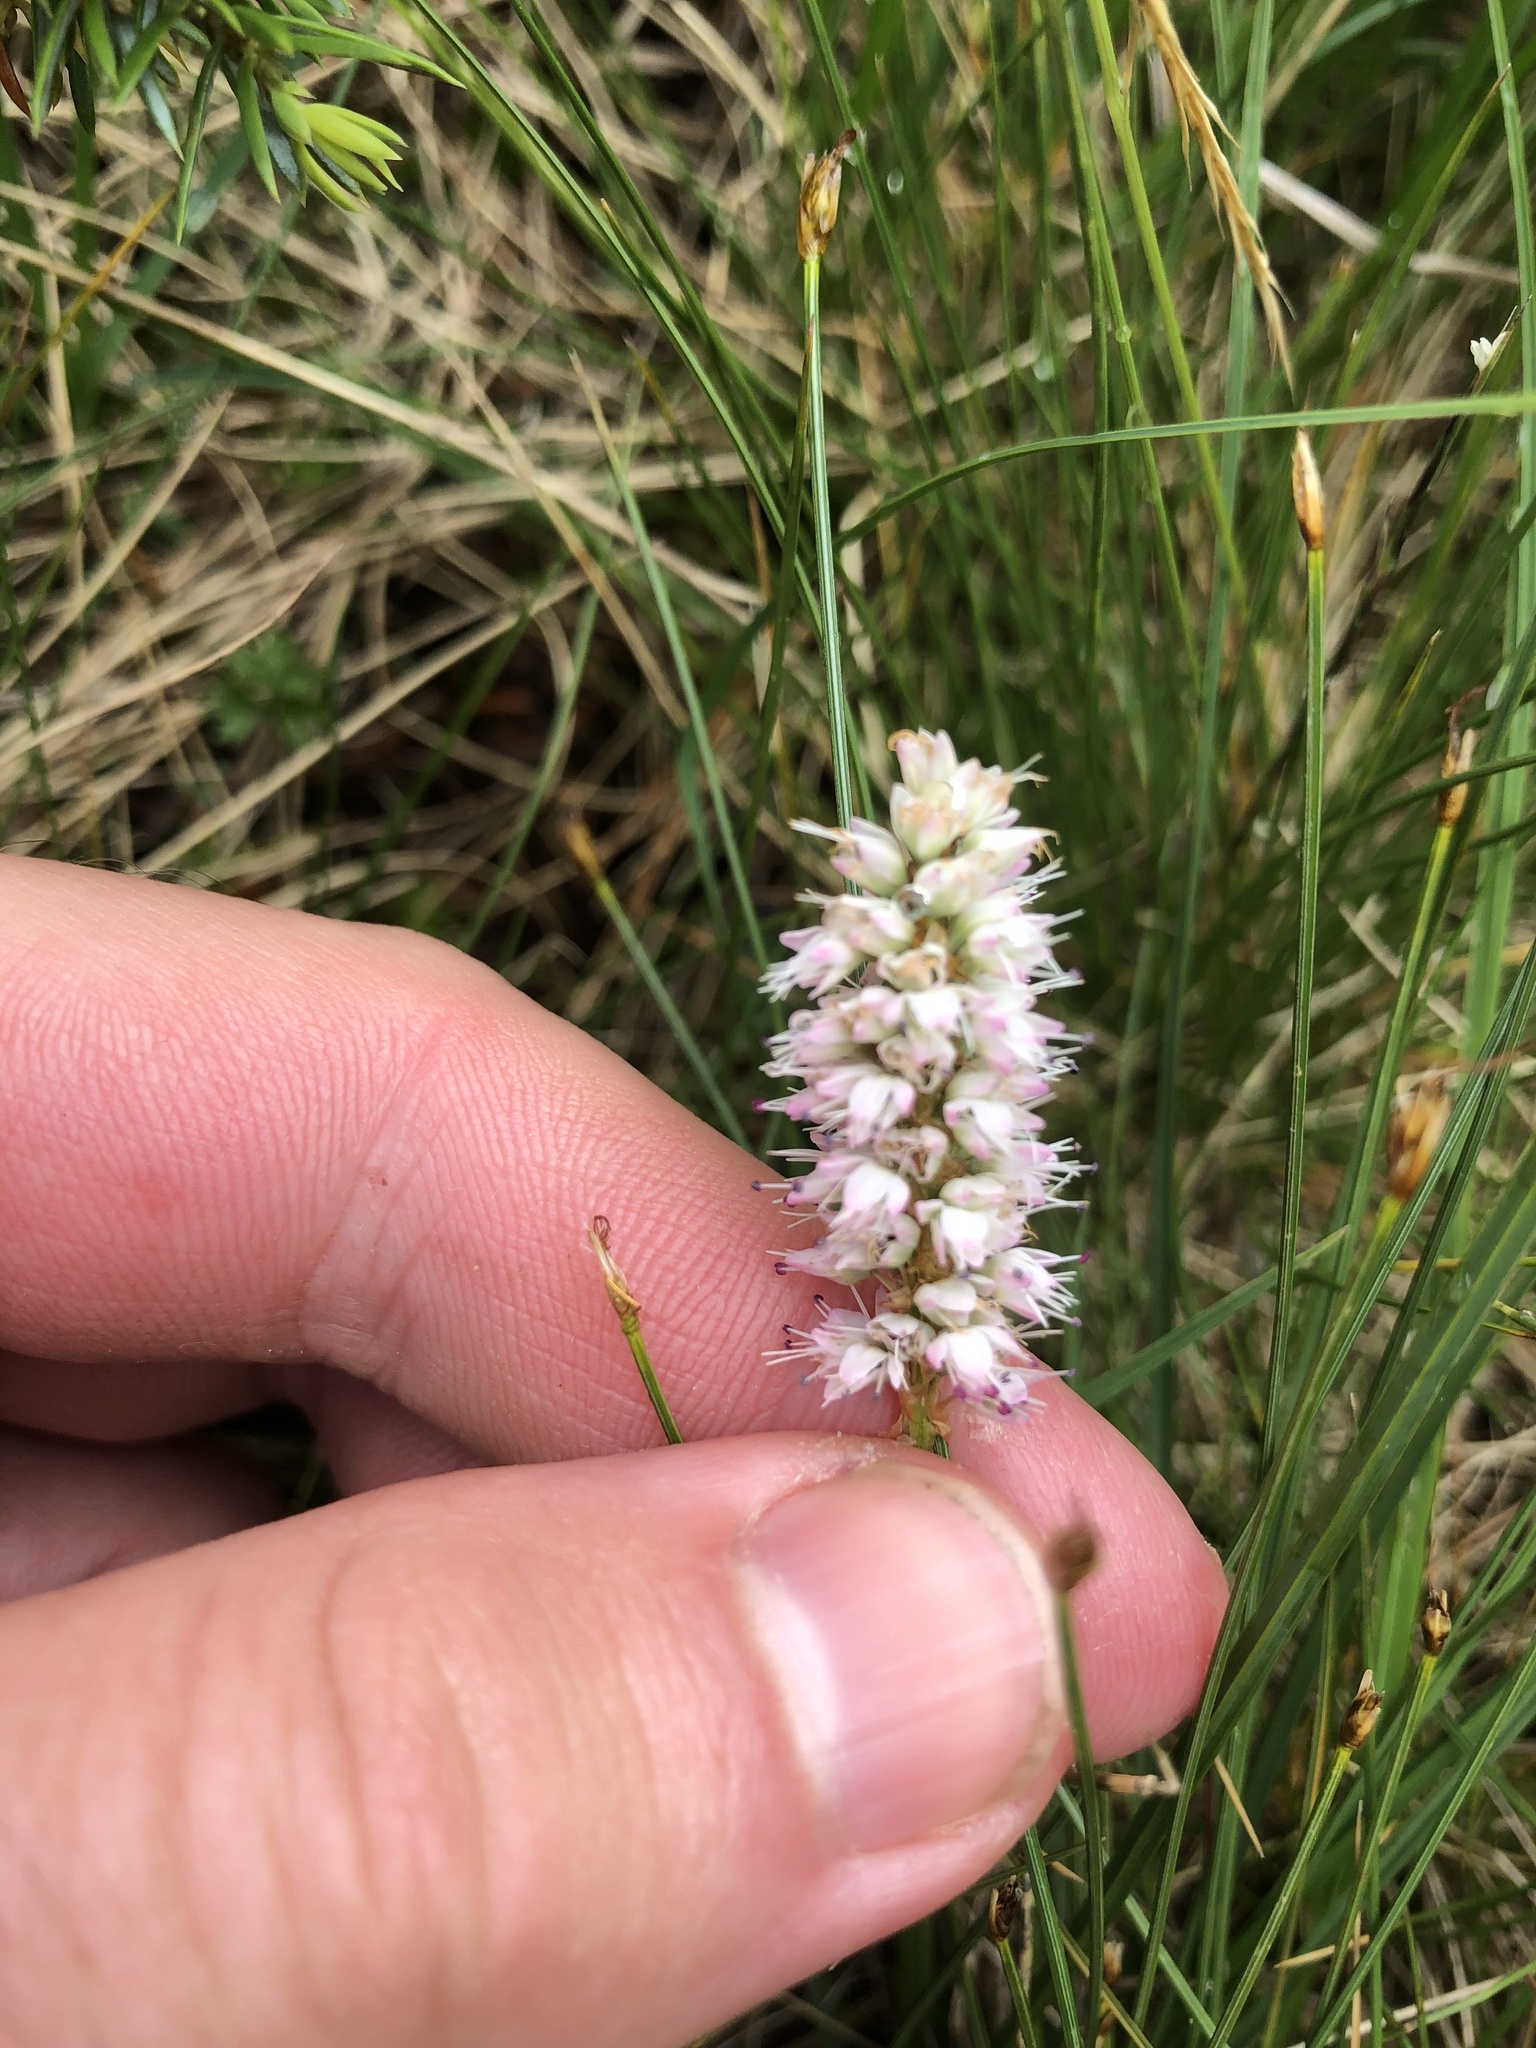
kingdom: Plantae
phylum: Tracheophyta
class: Magnoliopsida
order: Caryophyllales
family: Polygonaceae
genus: Bistorta
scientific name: Bistorta vivipara
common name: Alpine bistort
